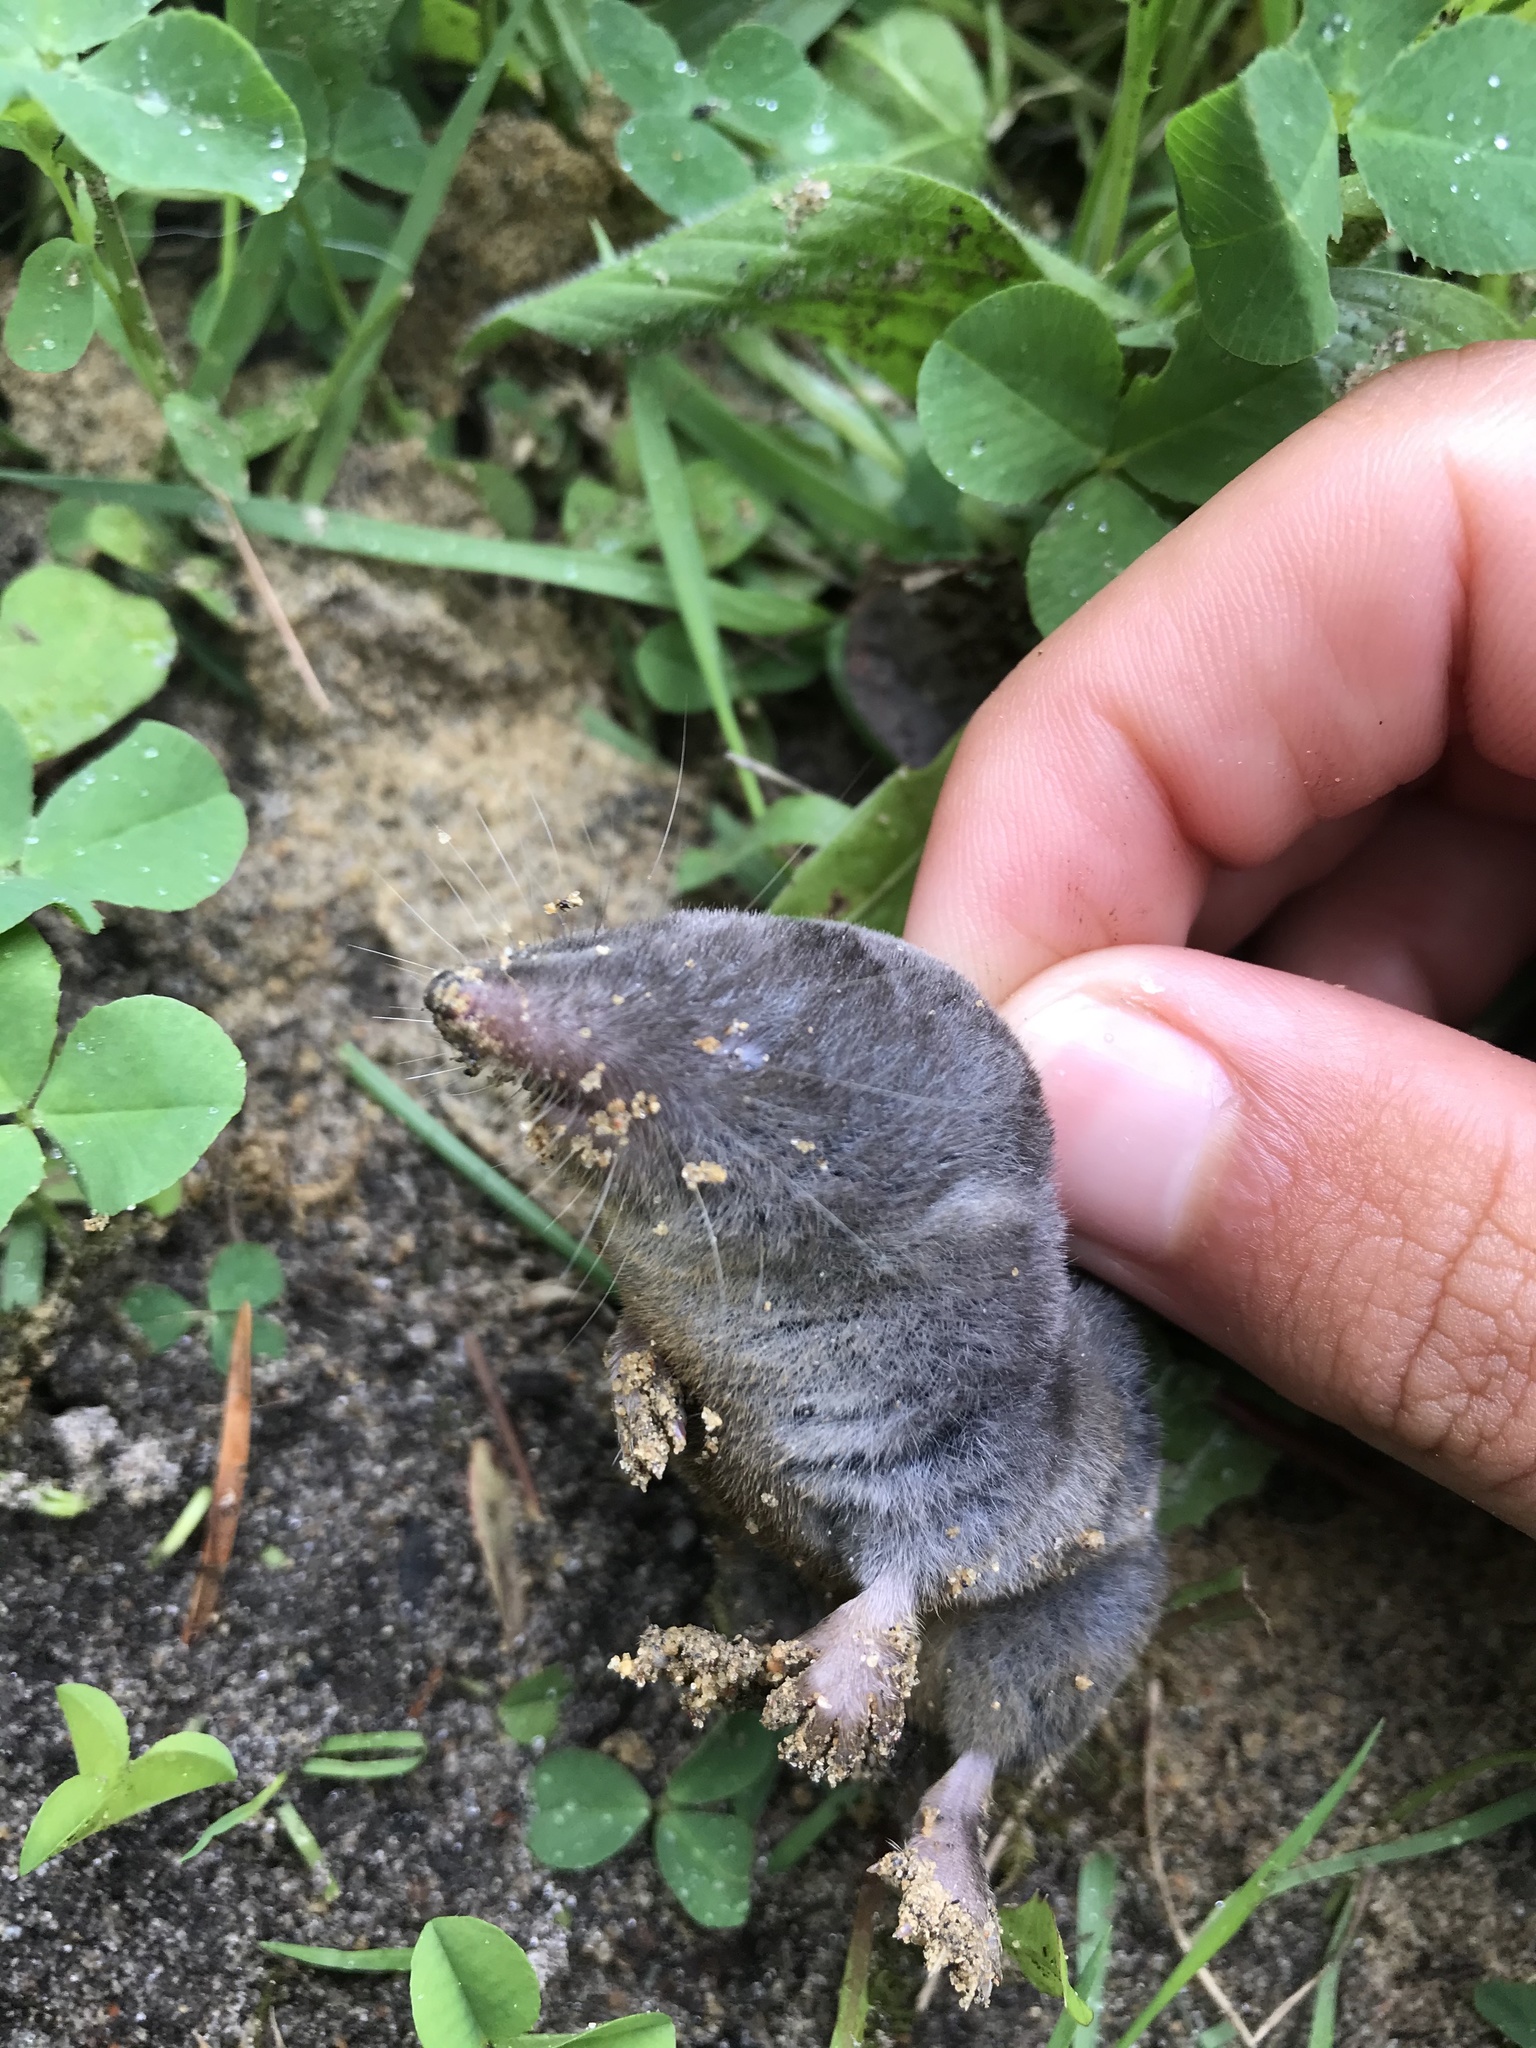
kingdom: Animalia
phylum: Chordata
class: Mammalia
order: Soricomorpha
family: Soricidae
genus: Blarina
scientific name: Blarina brevicauda
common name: Northern short-tailed shrew
